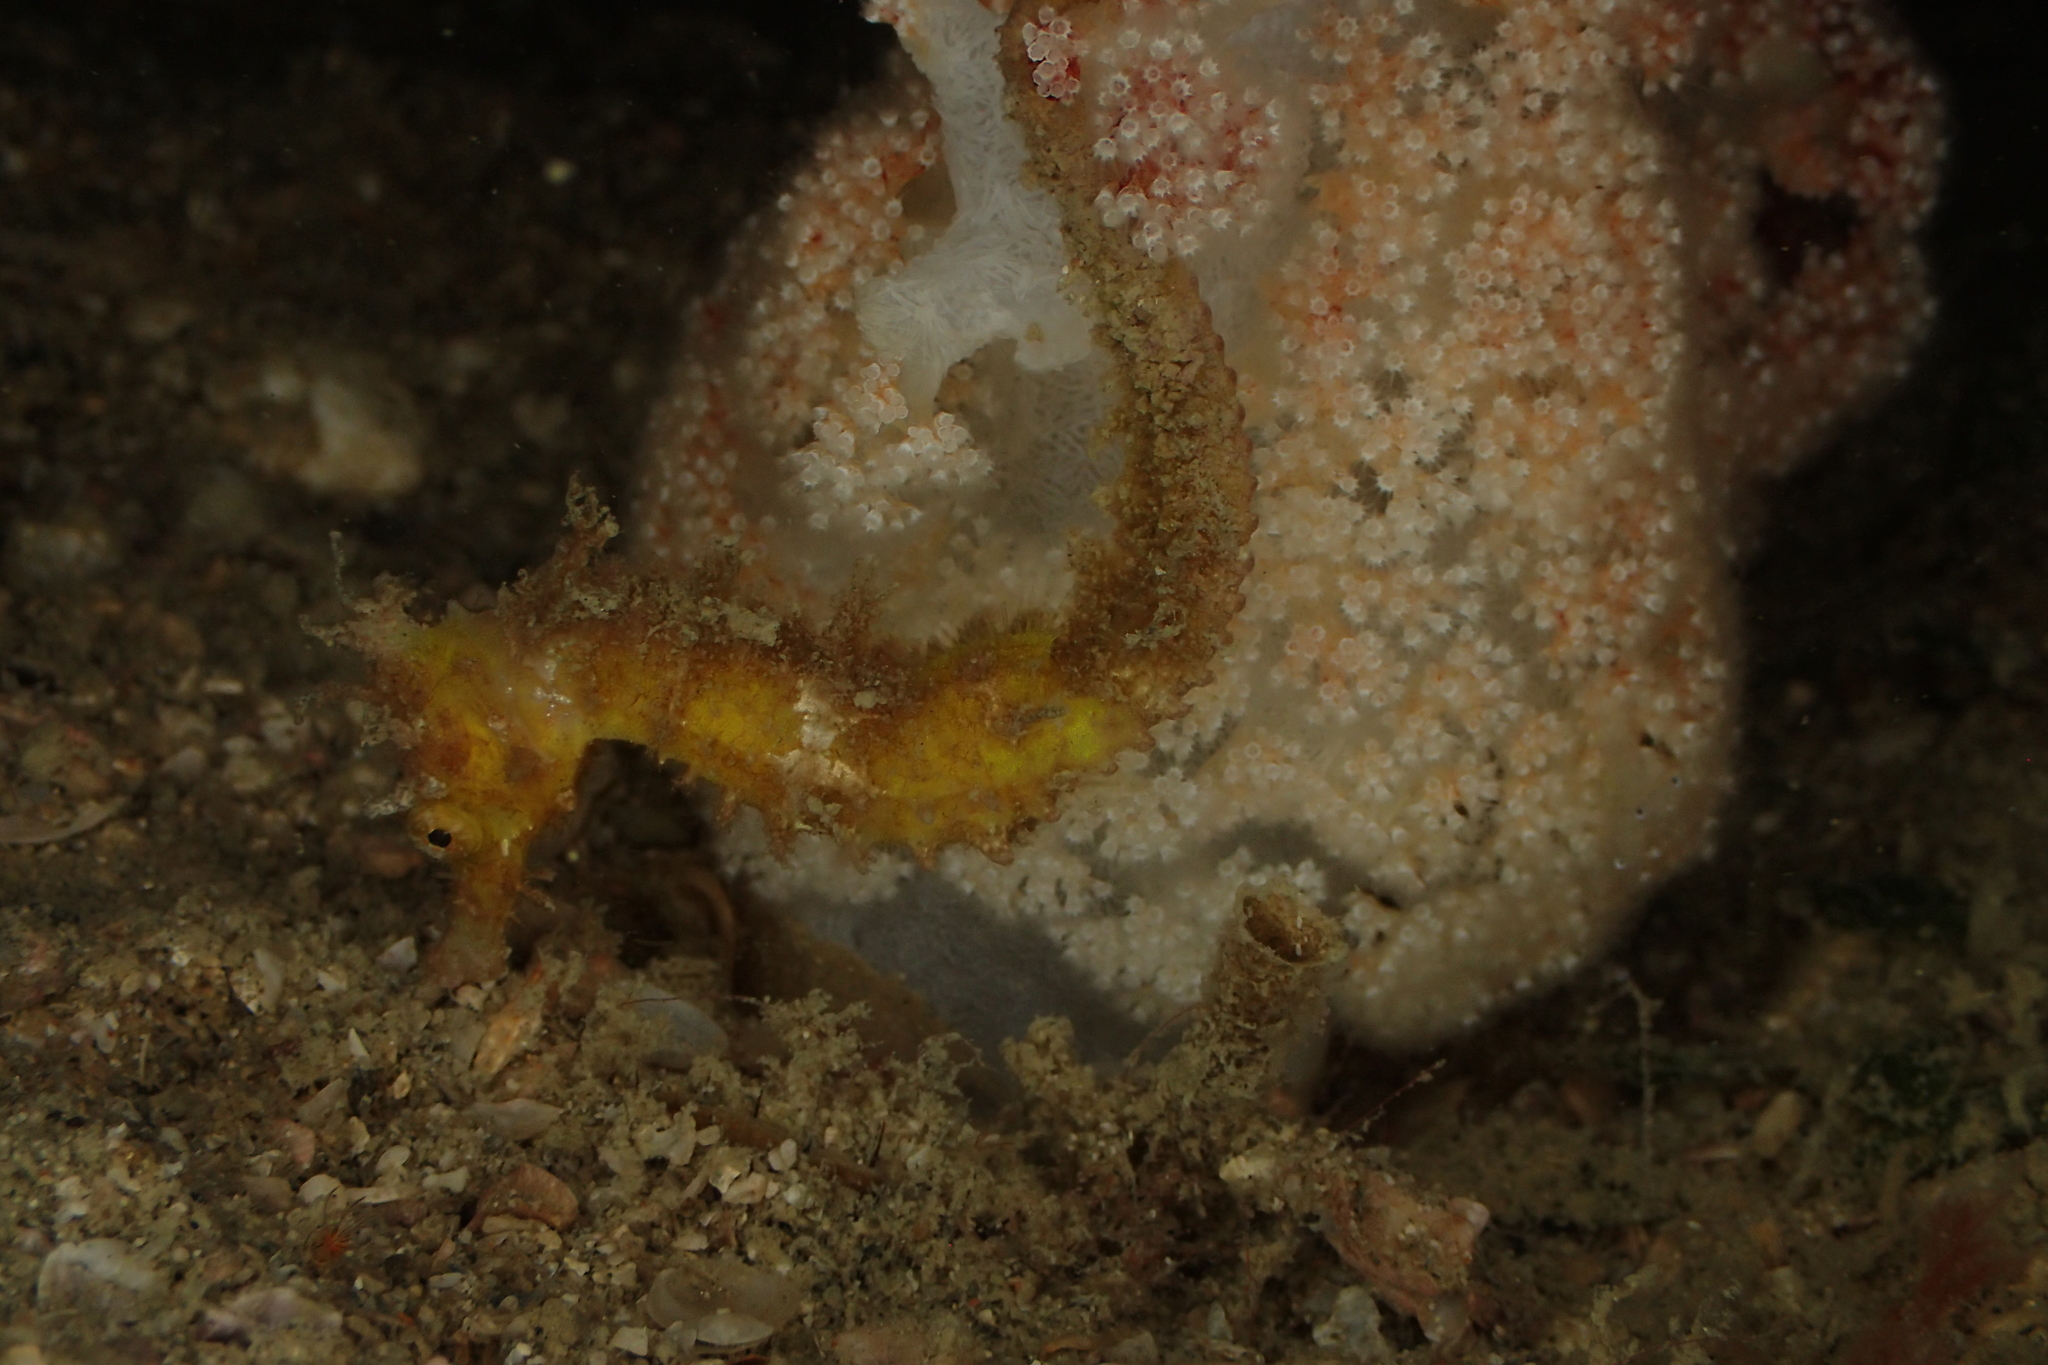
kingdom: Animalia
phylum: Chordata
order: Syngnathiformes
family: Syngnathidae
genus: Hippocampus
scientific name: Hippocampus spinosissimus
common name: Hedgehog seahorse
